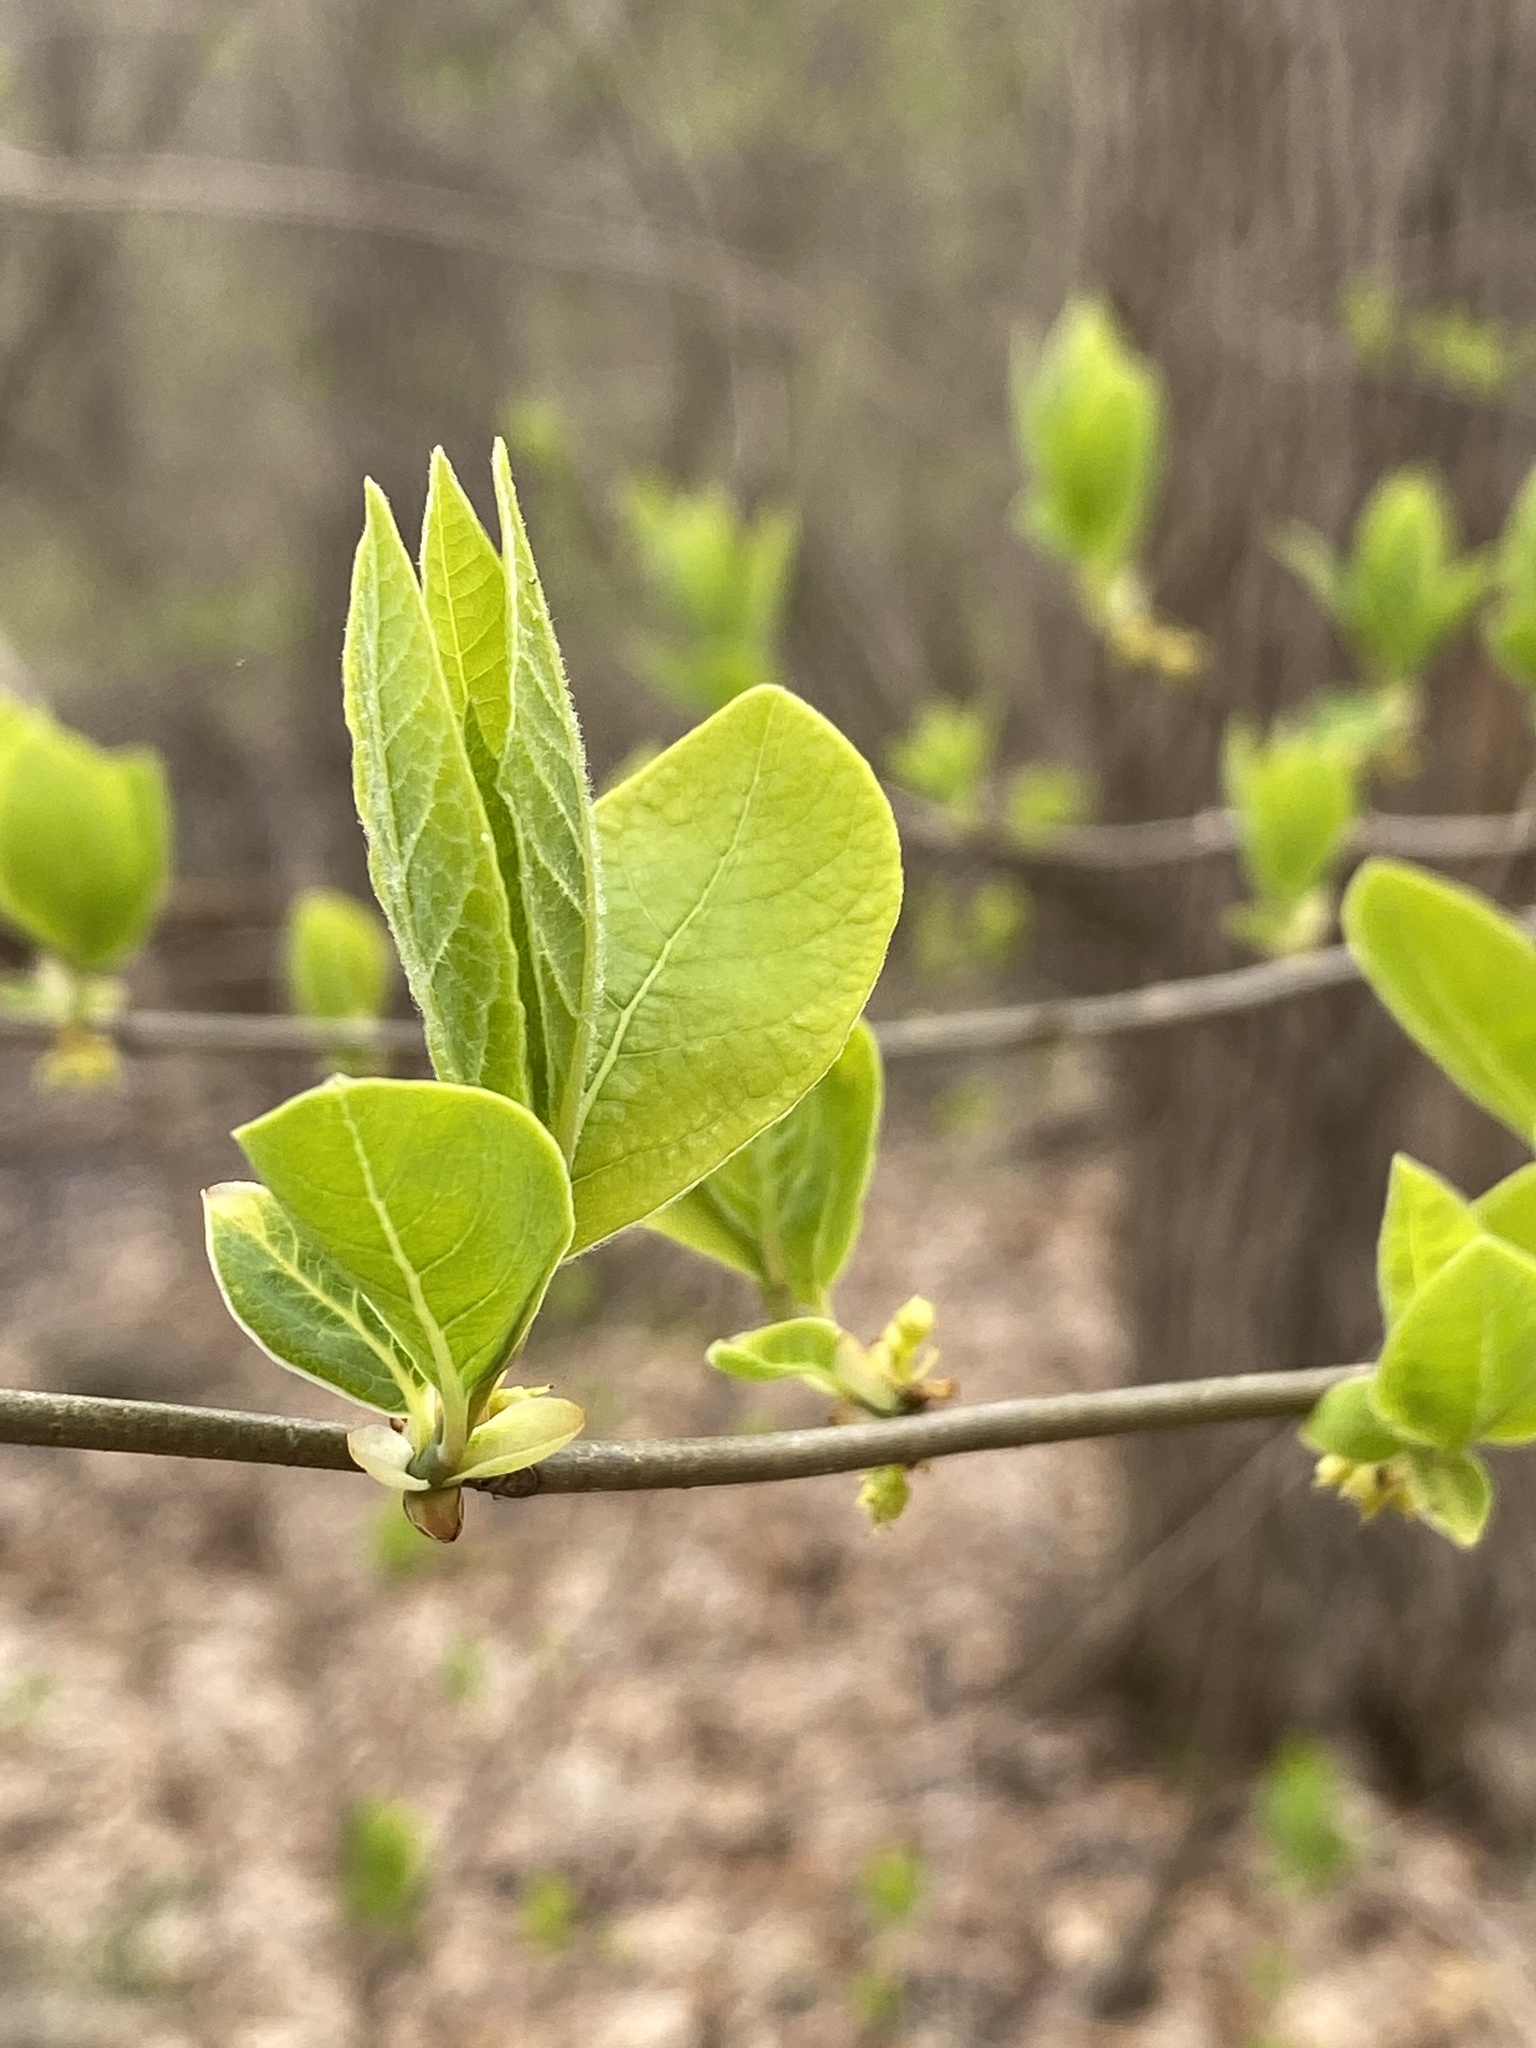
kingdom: Plantae
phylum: Tracheophyta
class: Magnoliopsida
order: Laurales
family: Lauraceae
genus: Lindera
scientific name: Lindera benzoin
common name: Spicebush
